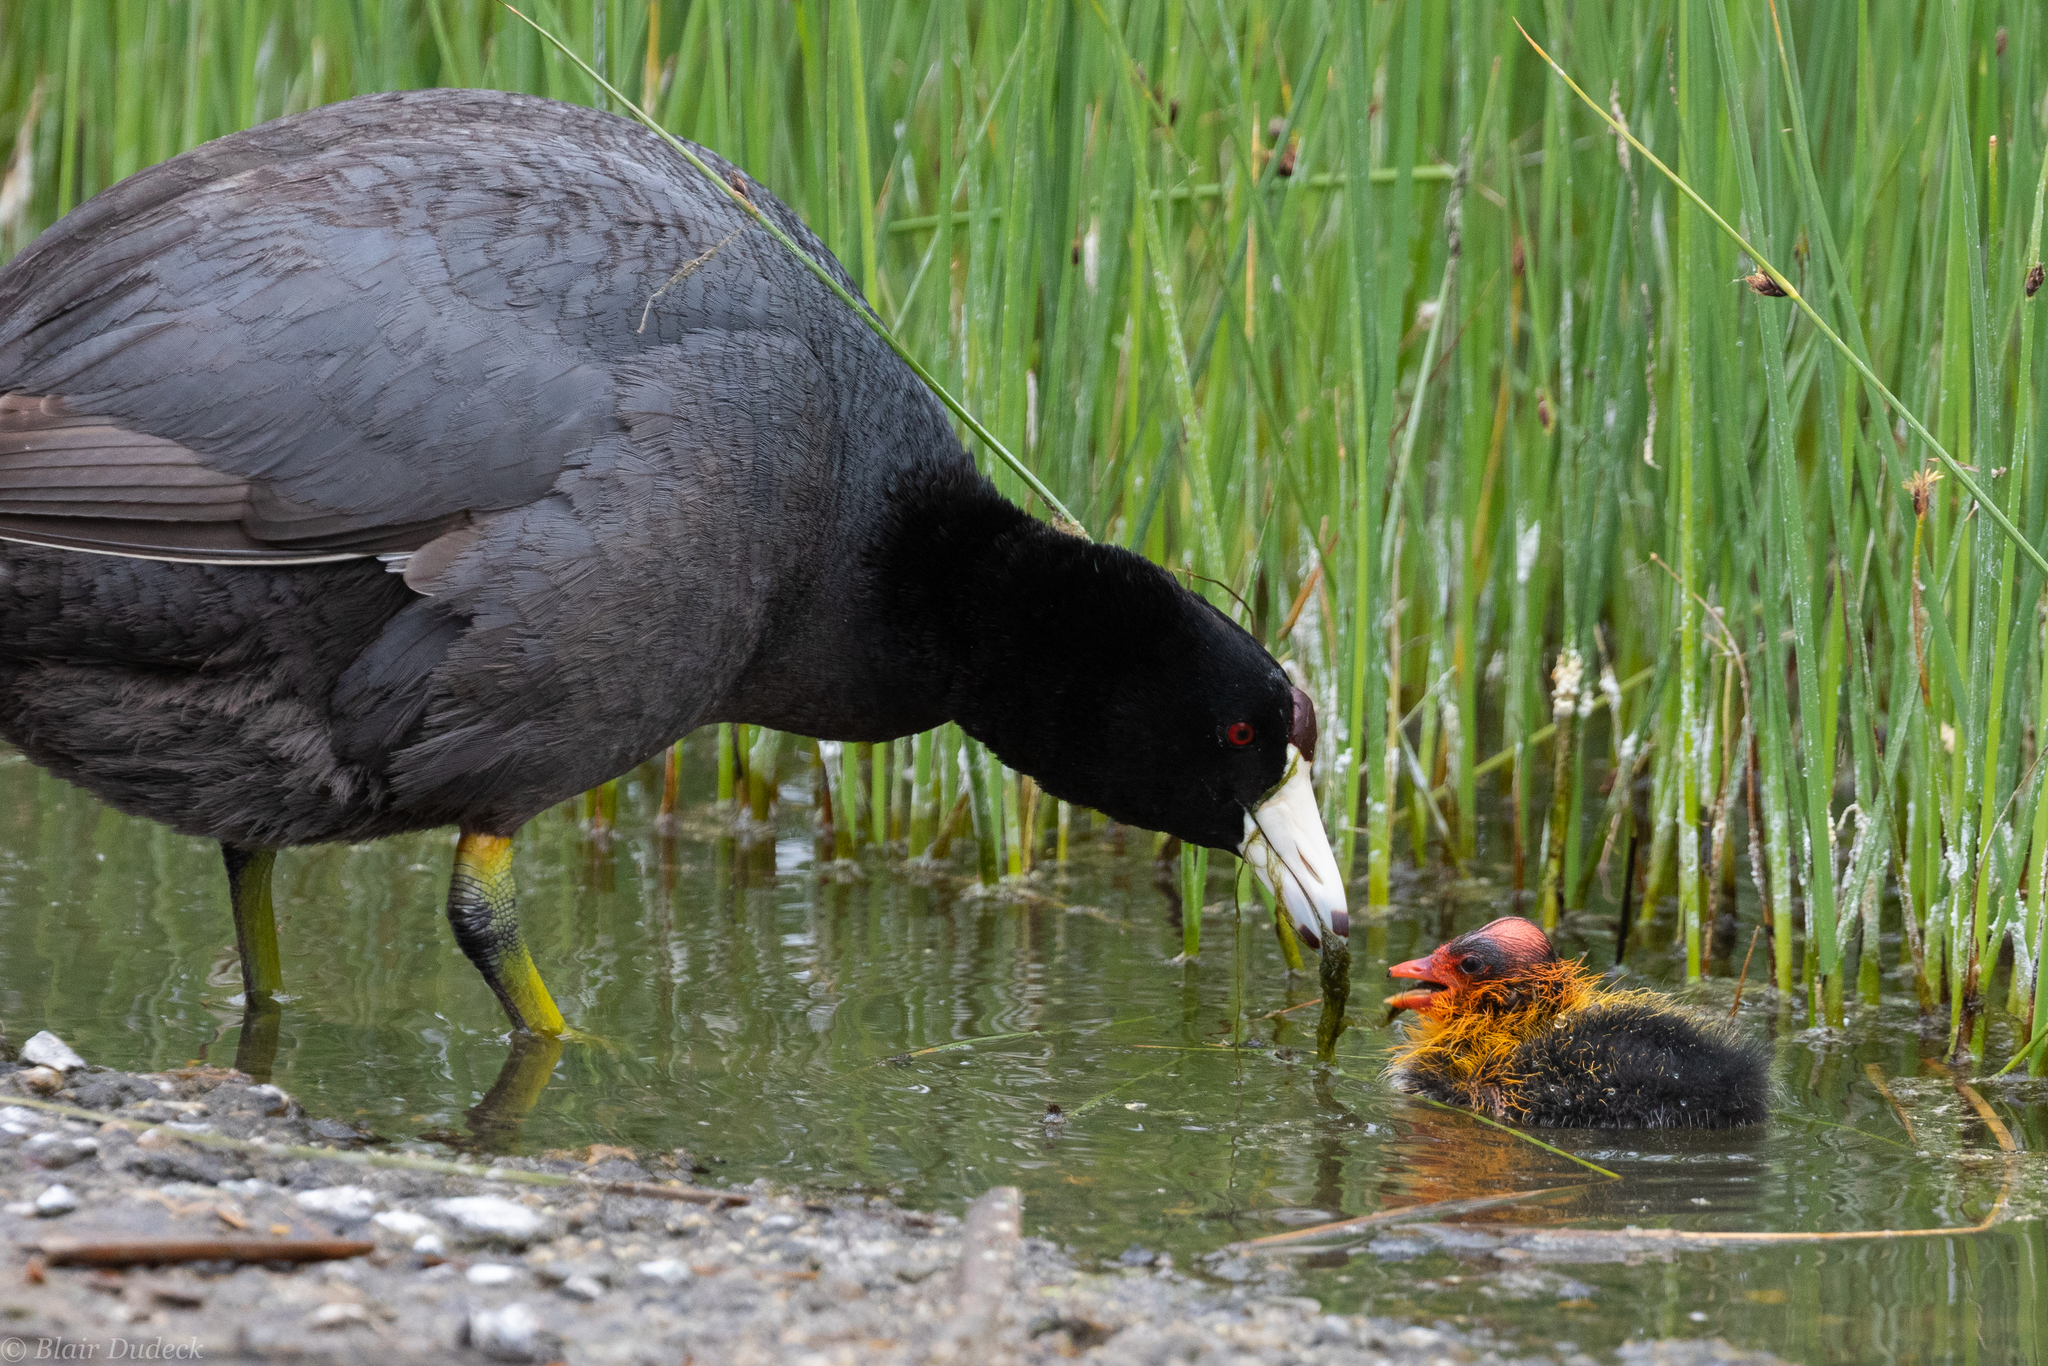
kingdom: Animalia
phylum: Chordata
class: Aves
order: Gruiformes
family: Rallidae
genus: Fulica
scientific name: Fulica americana
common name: American coot
